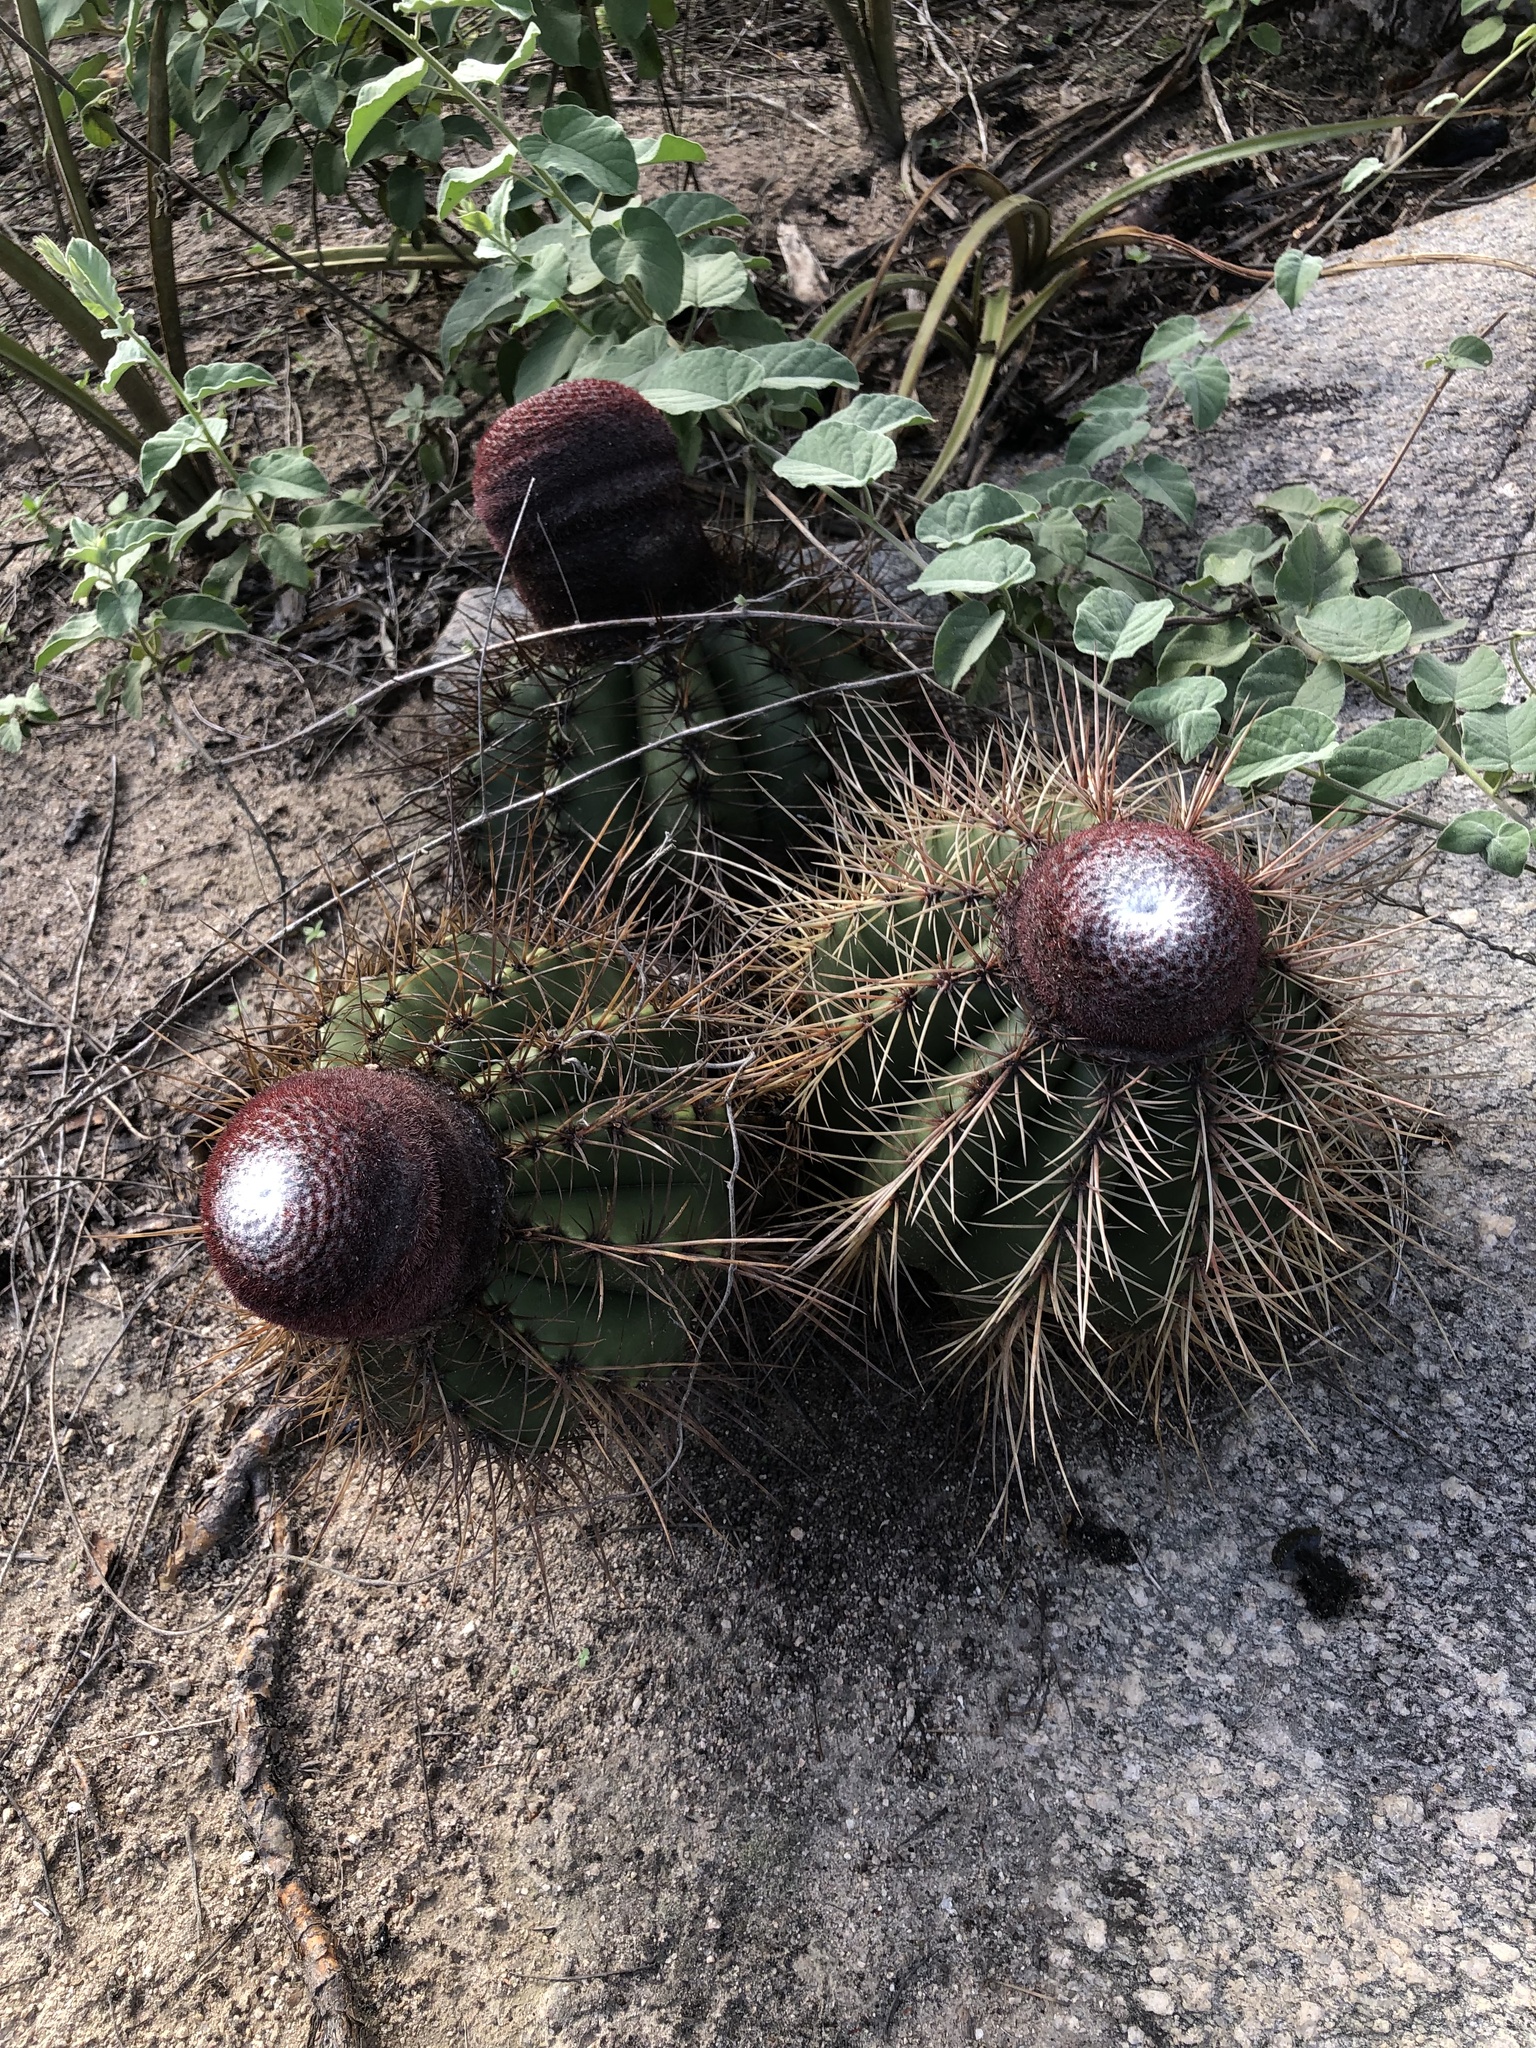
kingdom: Plantae
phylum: Tracheophyta
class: Magnoliopsida
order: Caryophyllales
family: Cactaceae
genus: Melocactus
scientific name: Melocactus ernestii
